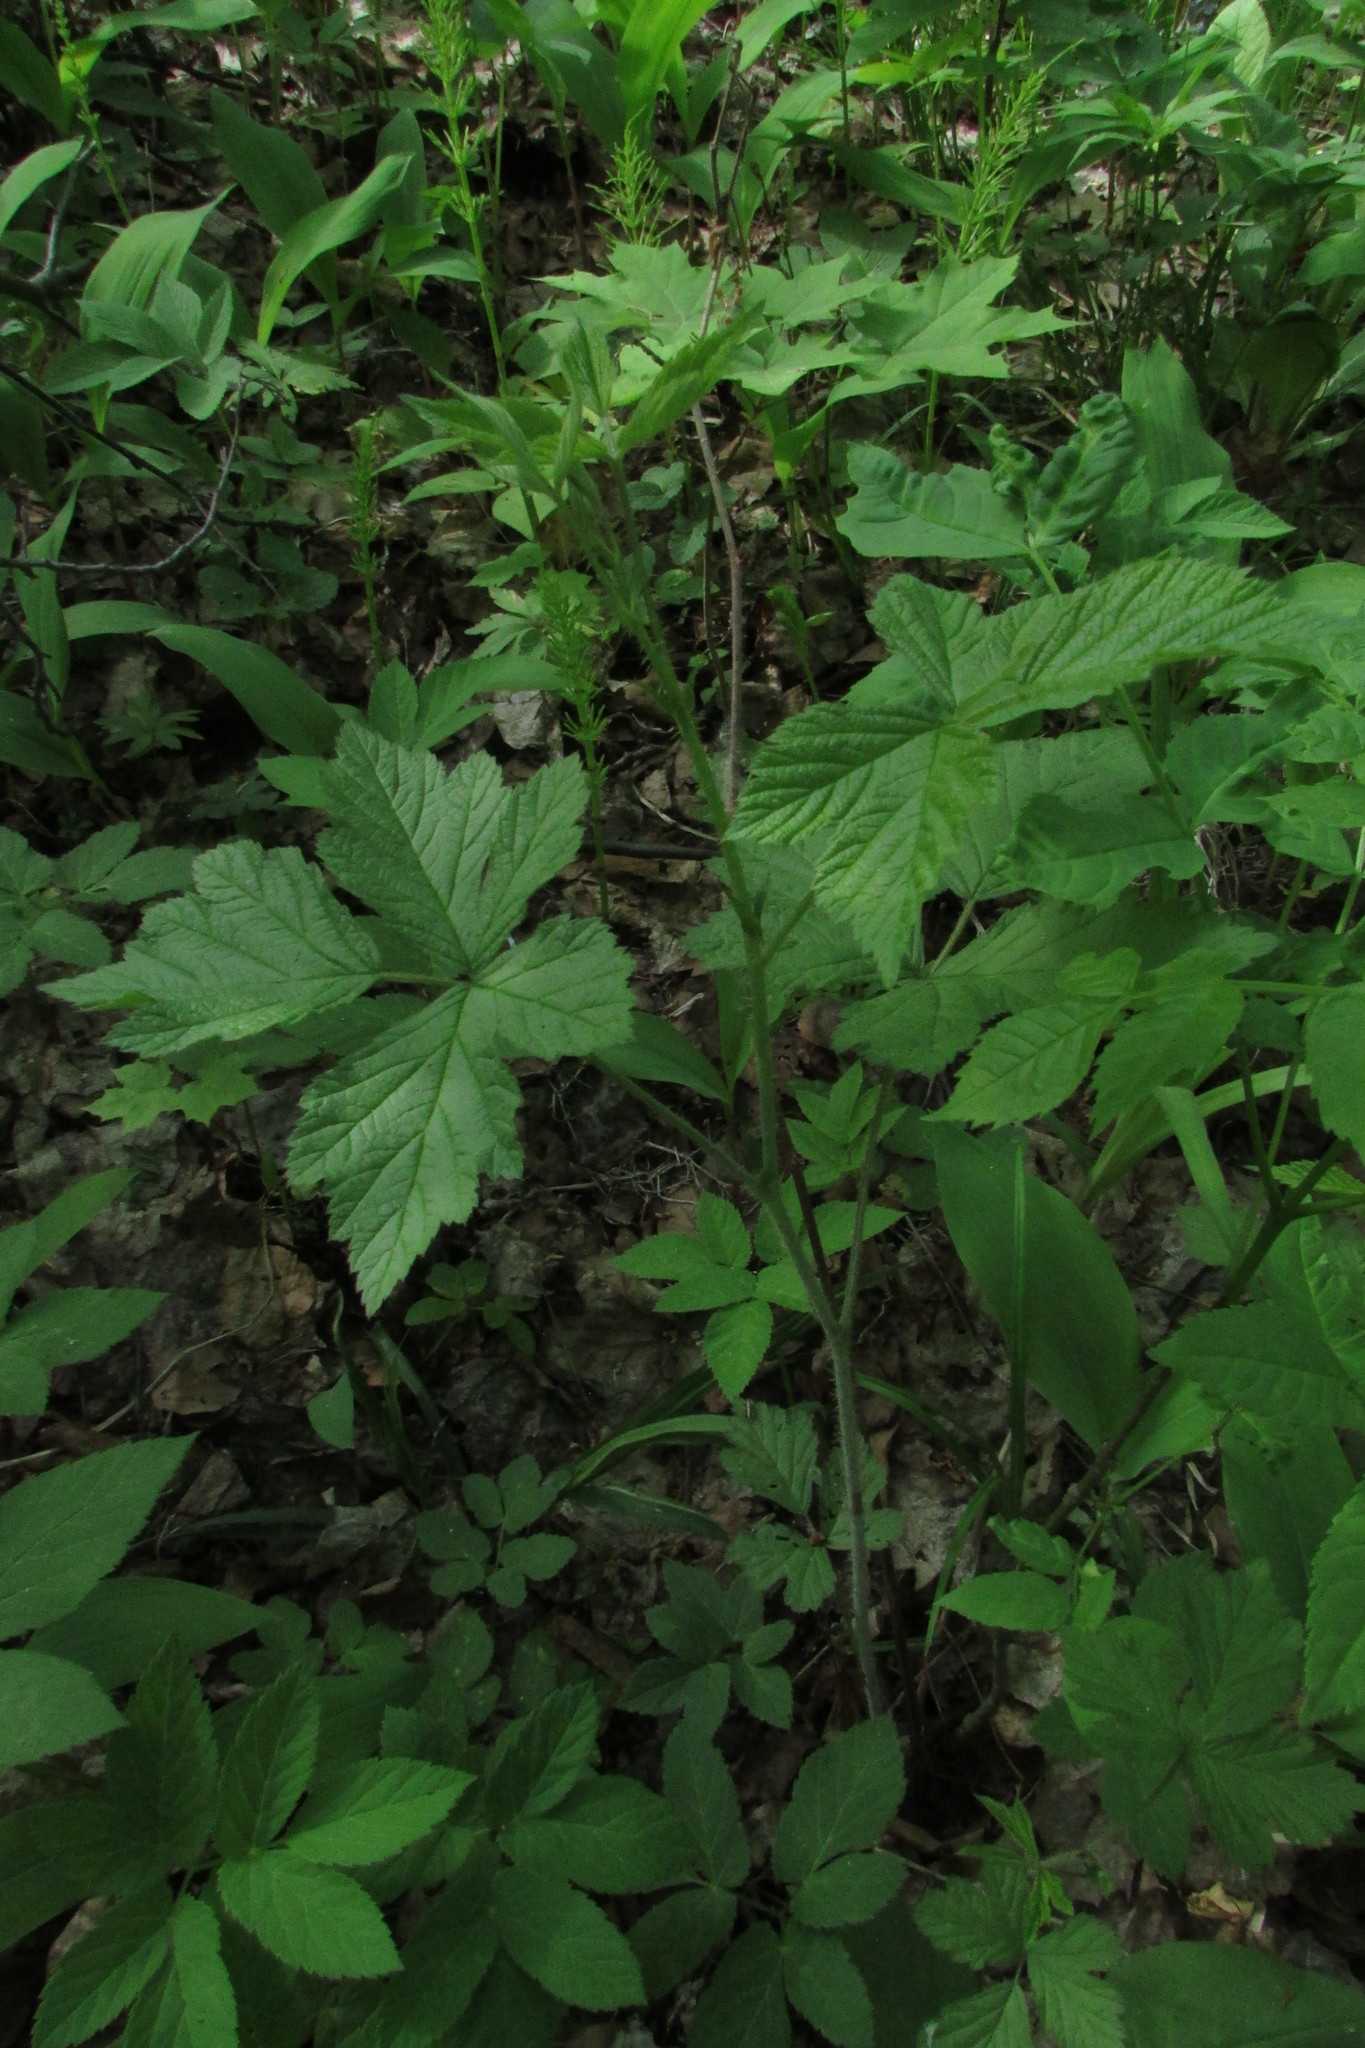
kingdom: Plantae
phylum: Tracheophyta
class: Magnoliopsida
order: Rosales
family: Rosaceae
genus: Rubus
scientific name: Rubus caesius
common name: Dewberry
